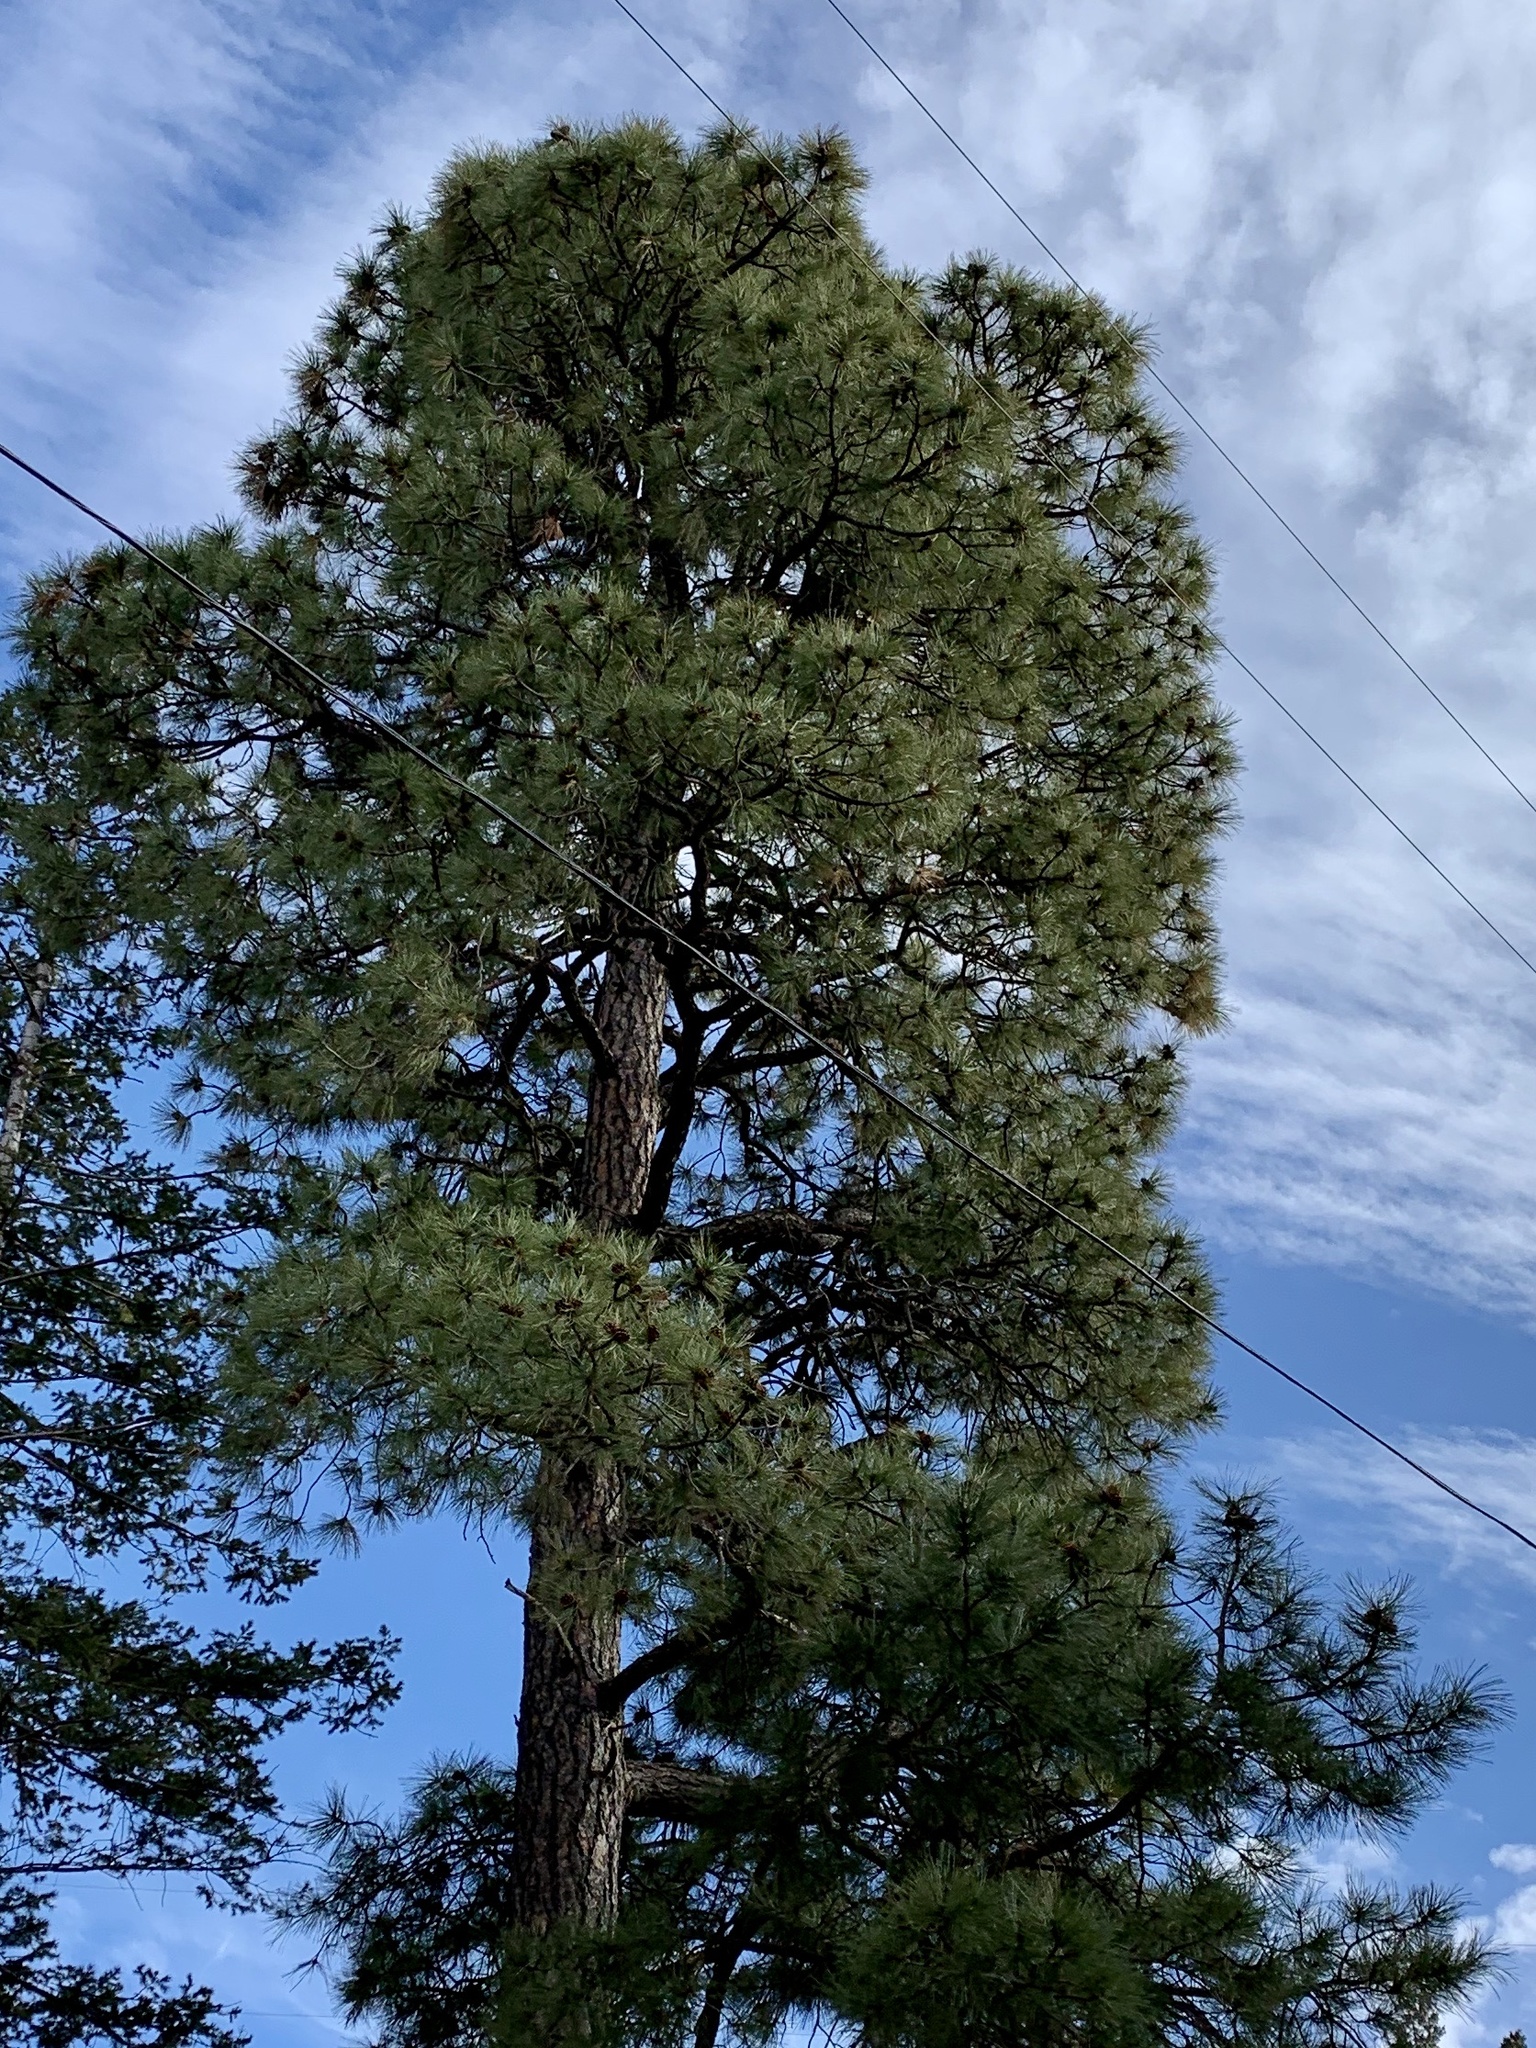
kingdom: Plantae
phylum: Tracheophyta
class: Pinopsida
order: Pinales
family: Pinaceae
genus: Pinus
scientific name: Pinus ponderosa
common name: Western yellow-pine
